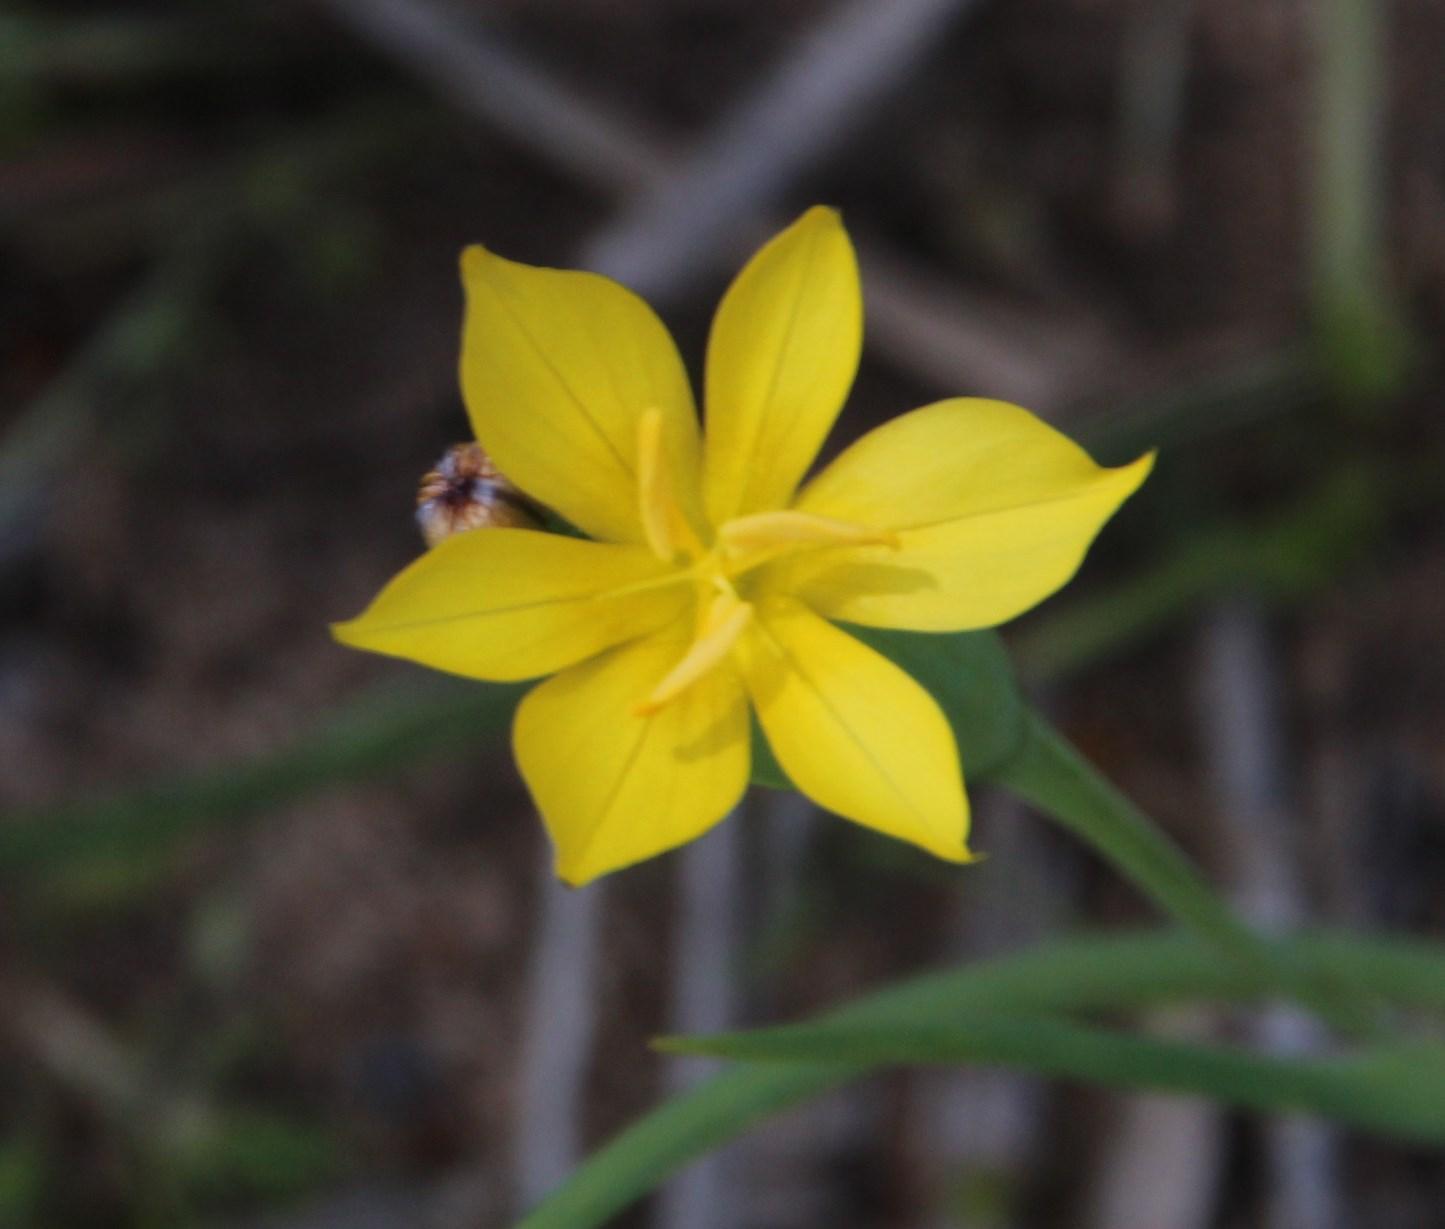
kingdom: Plantae
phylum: Tracheophyta
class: Liliopsida
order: Asparagales
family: Iridaceae
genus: Sisyrinchium
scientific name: Sisyrinchium arenarium
